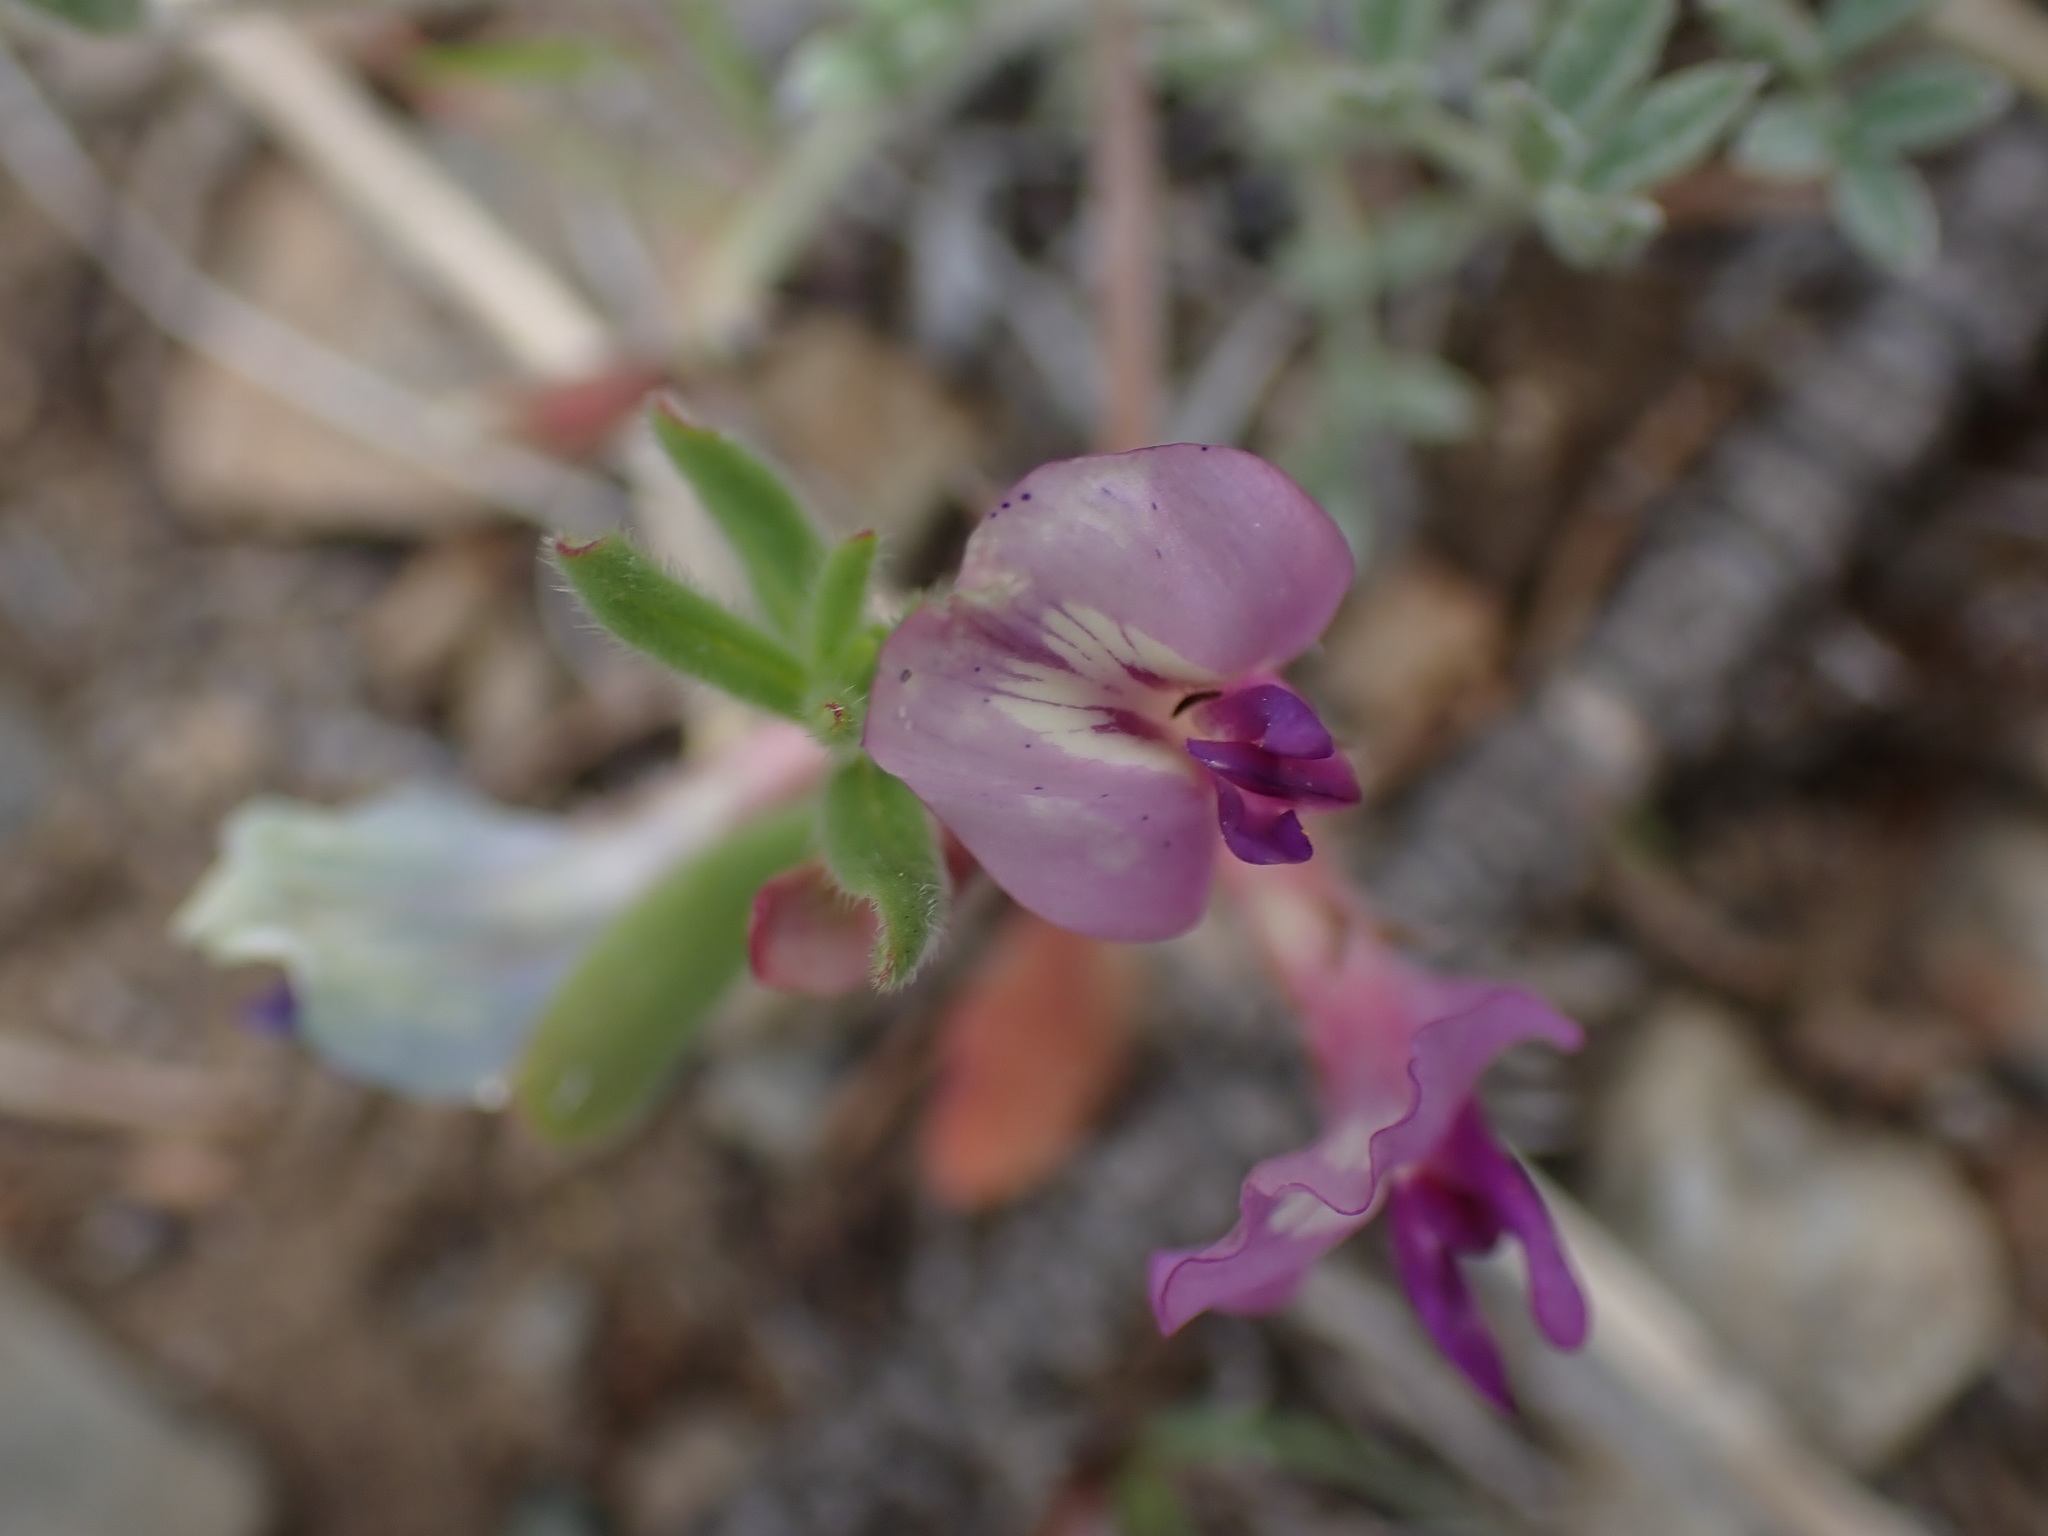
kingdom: Plantae
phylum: Tracheophyta
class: Magnoliopsida
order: Fabales
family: Fabaceae
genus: Astragalus
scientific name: Astragalus purshii
